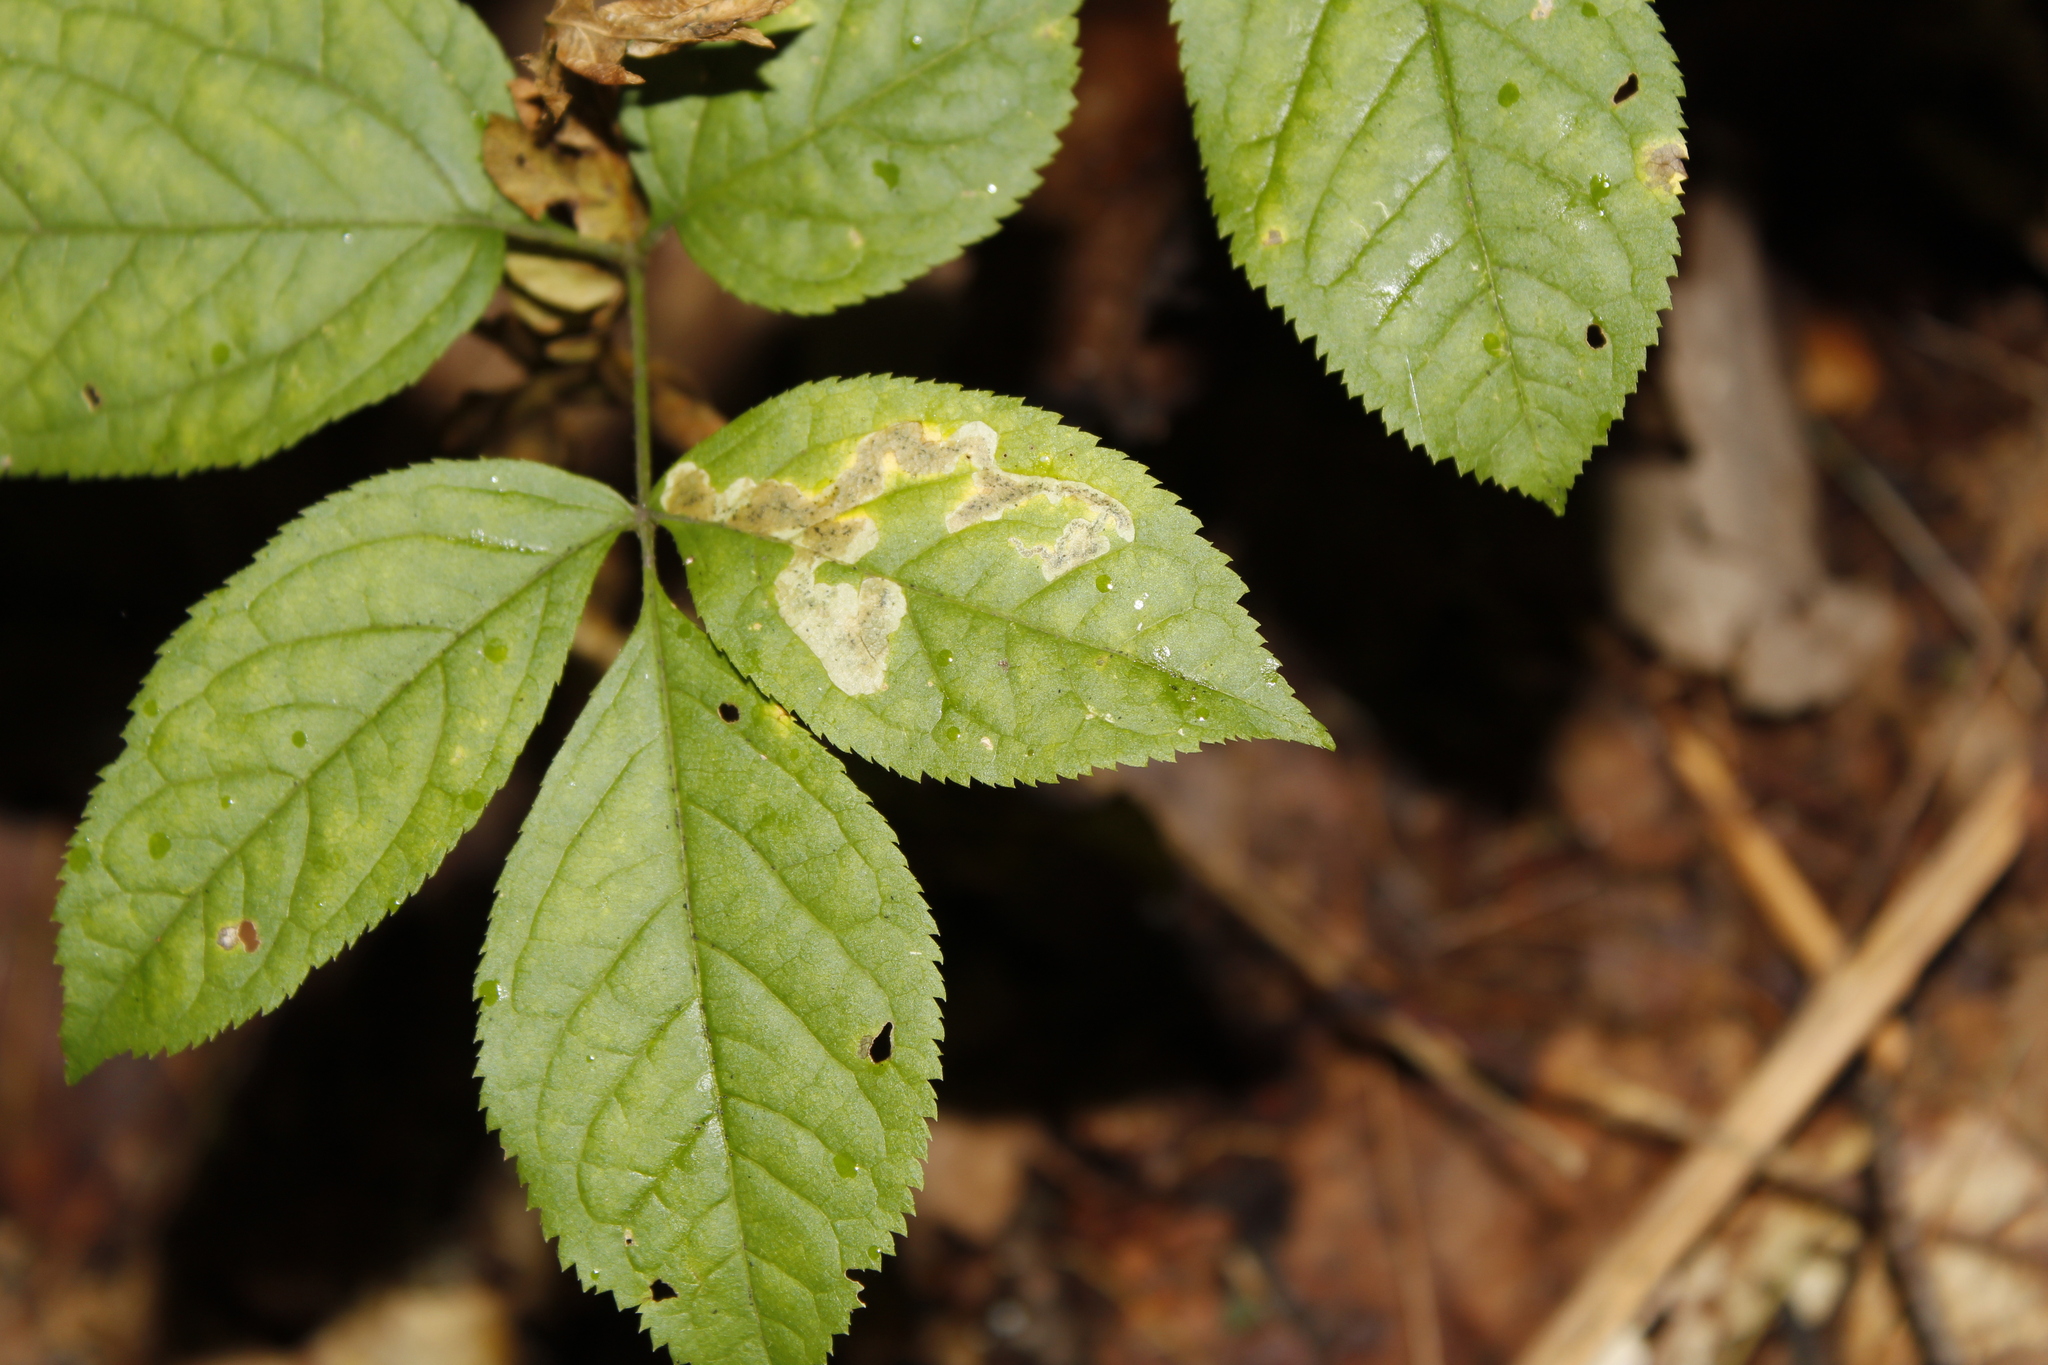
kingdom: Animalia
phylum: Arthropoda
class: Insecta
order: Diptera
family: Agromyzidae
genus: Phytomyza
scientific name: Phytomyza aralivora
